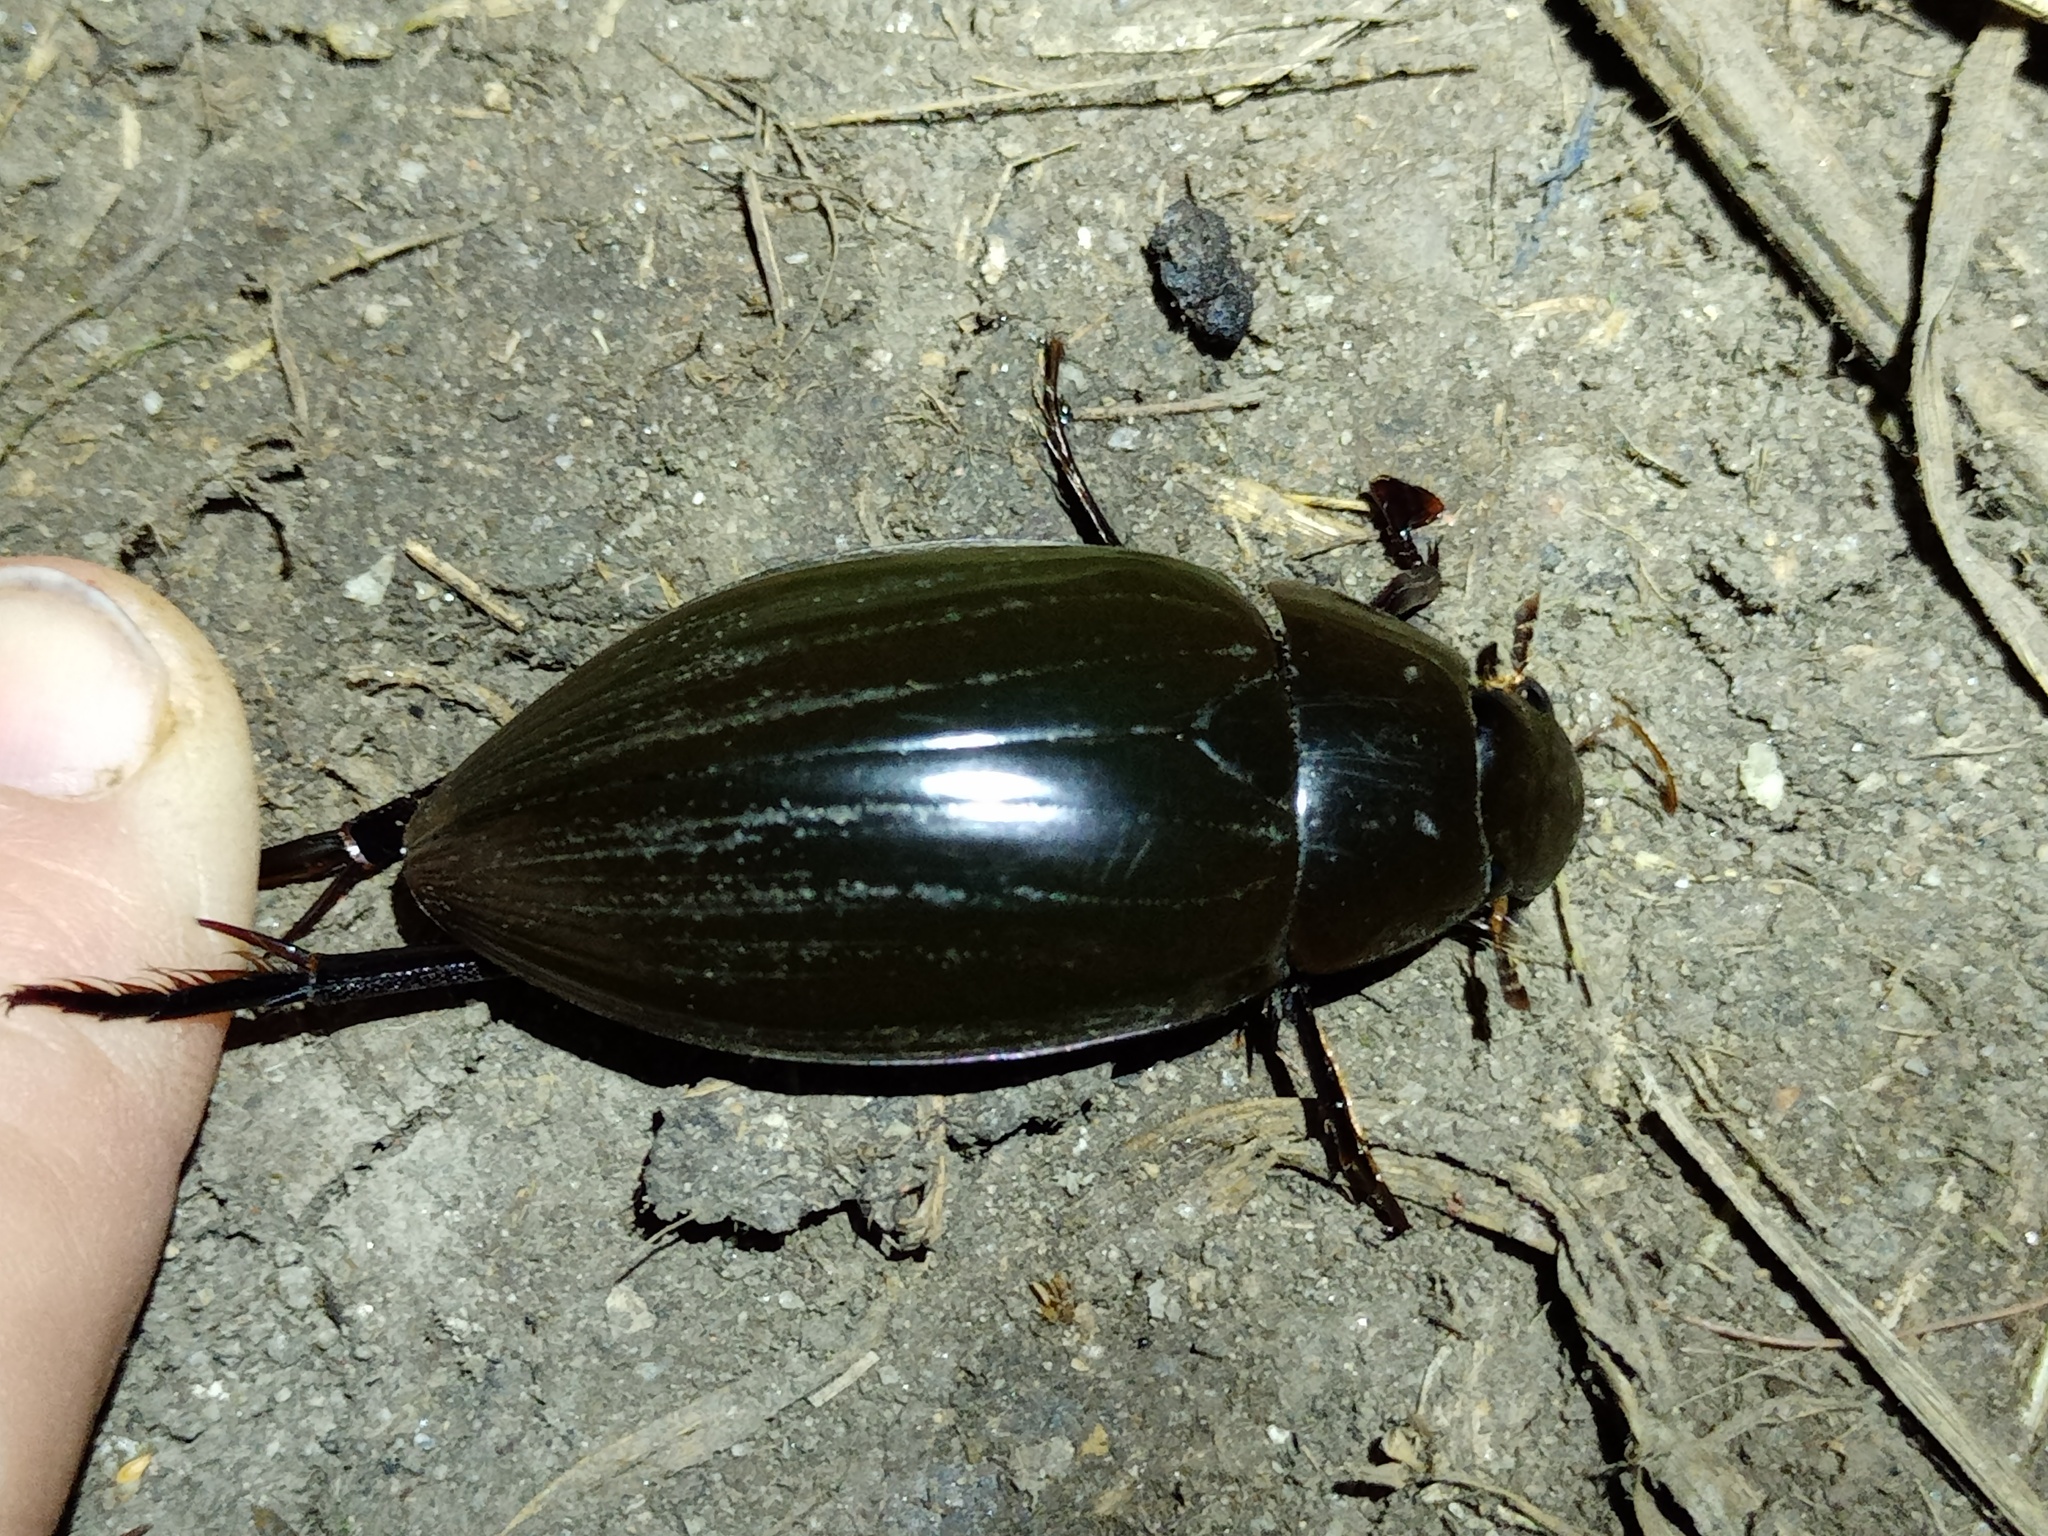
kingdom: Animalia
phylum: Arthropoda
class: Insecta
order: Coleoptera
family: Hydrophilidae
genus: Hydrophilus
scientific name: Hydrophilus piceus
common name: Great silver water beetle
